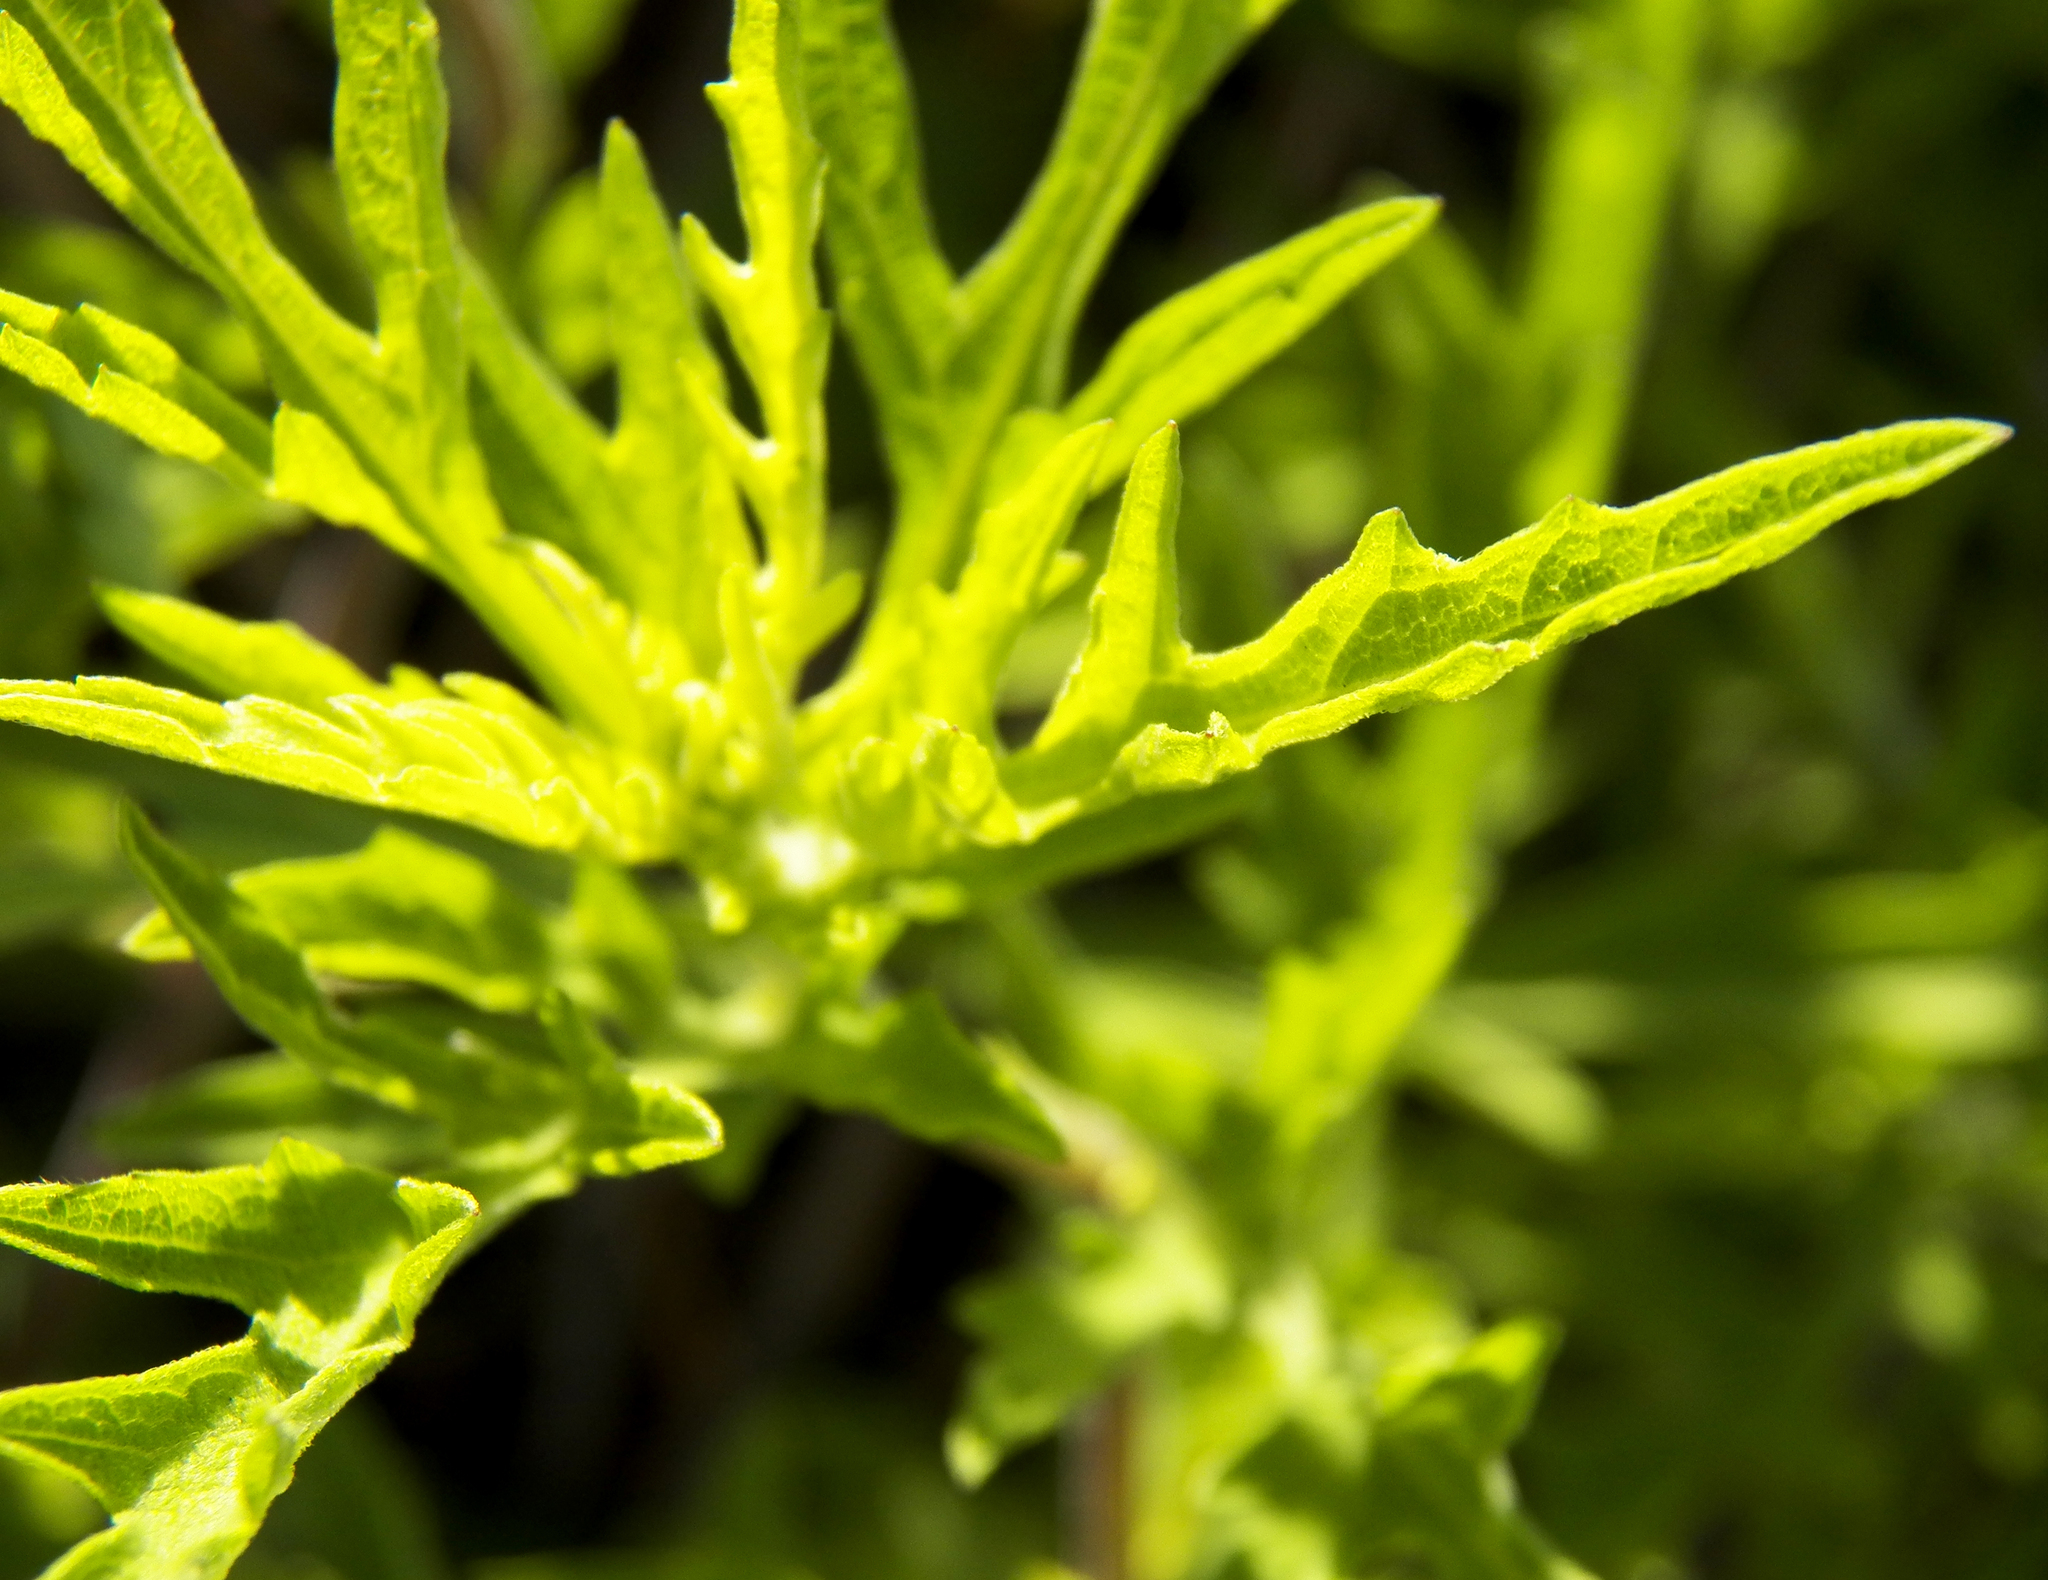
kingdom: Plantae
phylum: Tracheophyta
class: Magnoliopsida
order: Asterales
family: Asteraceae
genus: Ambrosia
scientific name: Ambrosia psilostachya
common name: Perennial ragweed
